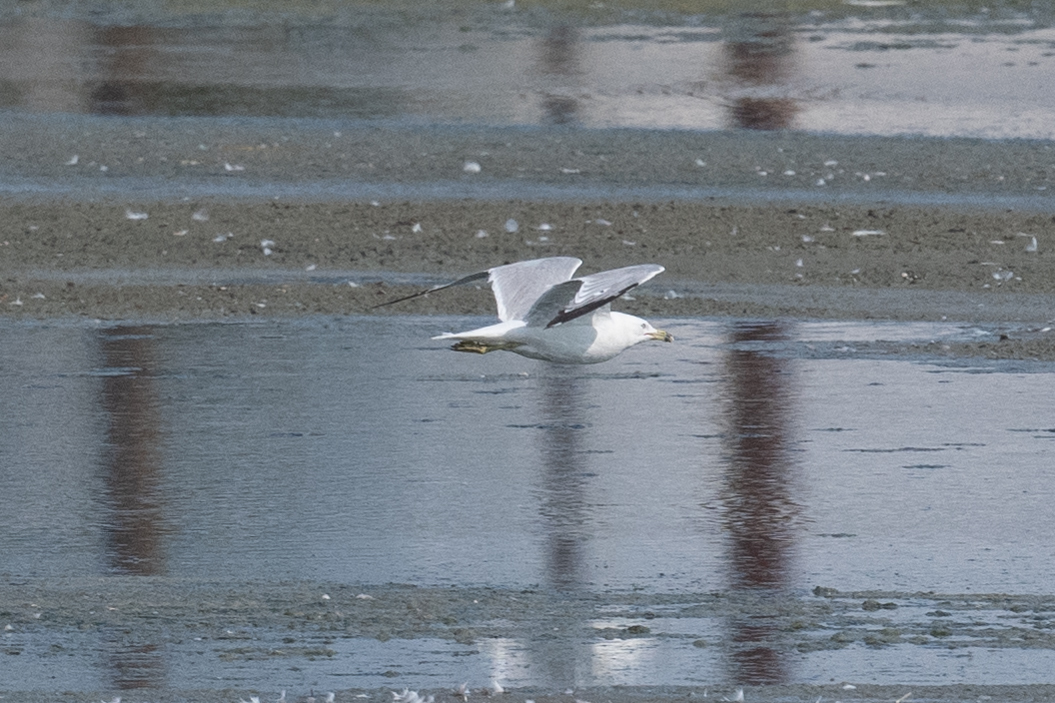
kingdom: Animalia
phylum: Chordata
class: Aves
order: Charadriiformes
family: Laridae
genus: Larus
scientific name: Larus delawarensis
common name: Ring-billed gull
